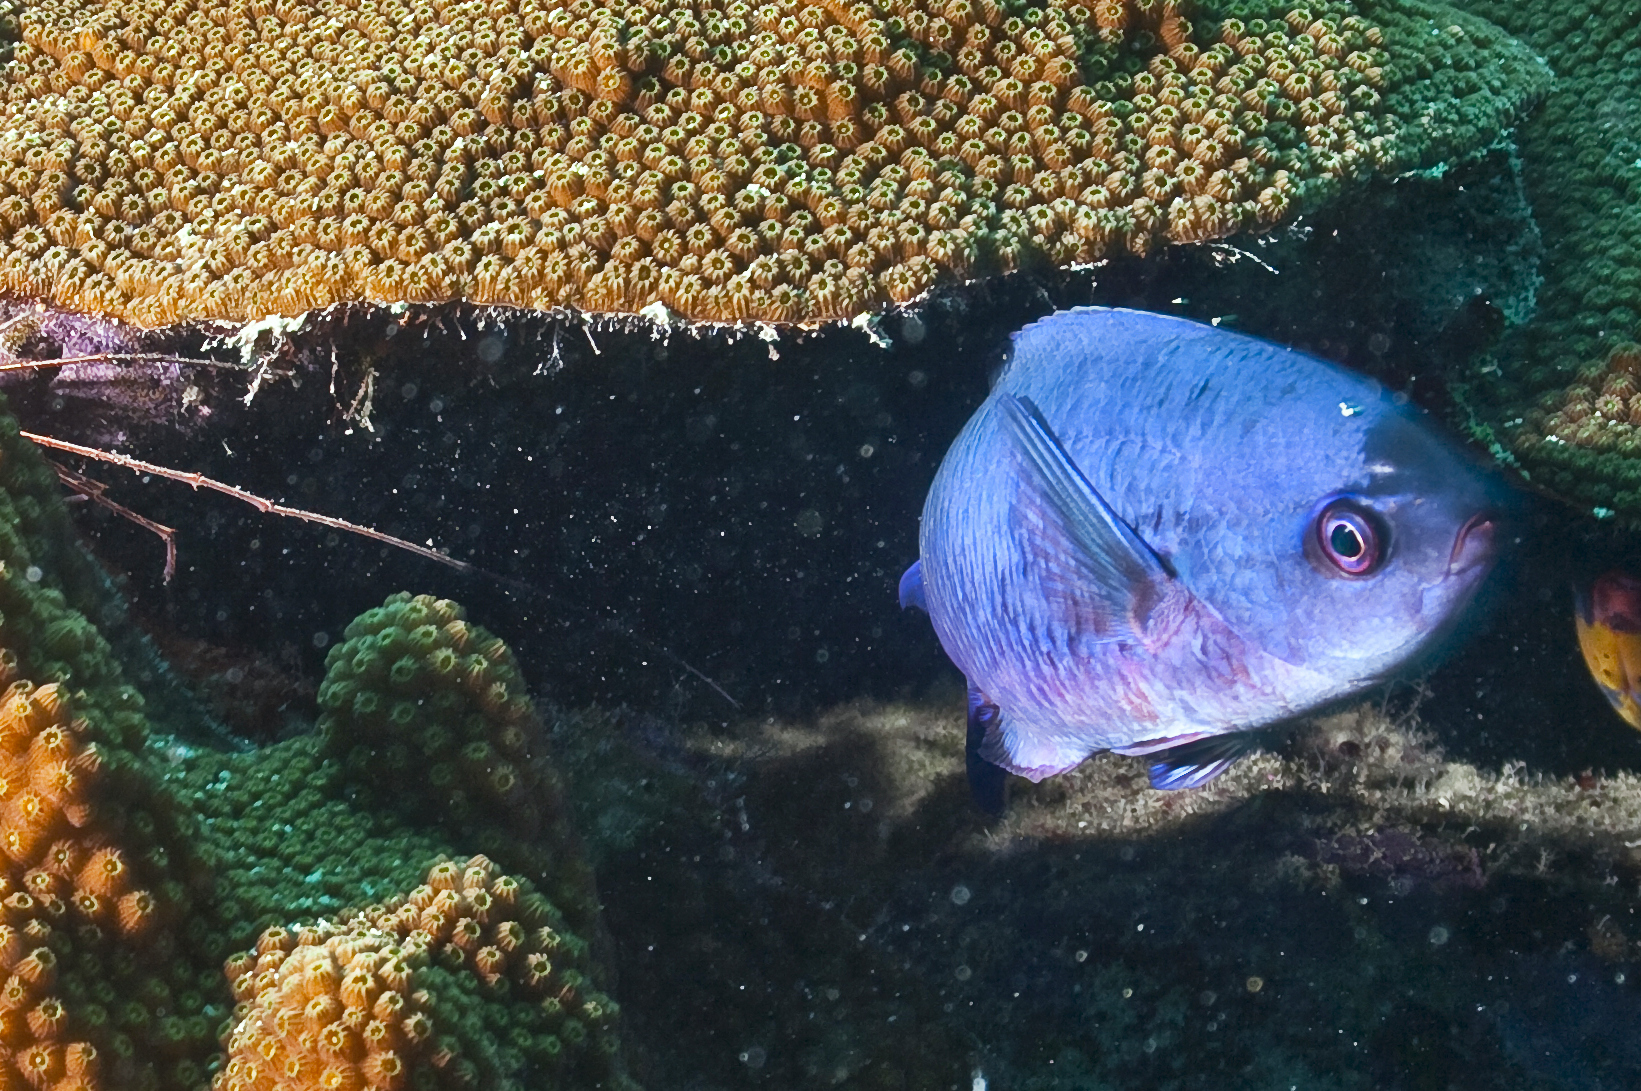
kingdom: Animalia
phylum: Chordata
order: Perciformes
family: Labridae
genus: Bodianus
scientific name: Bodianus
